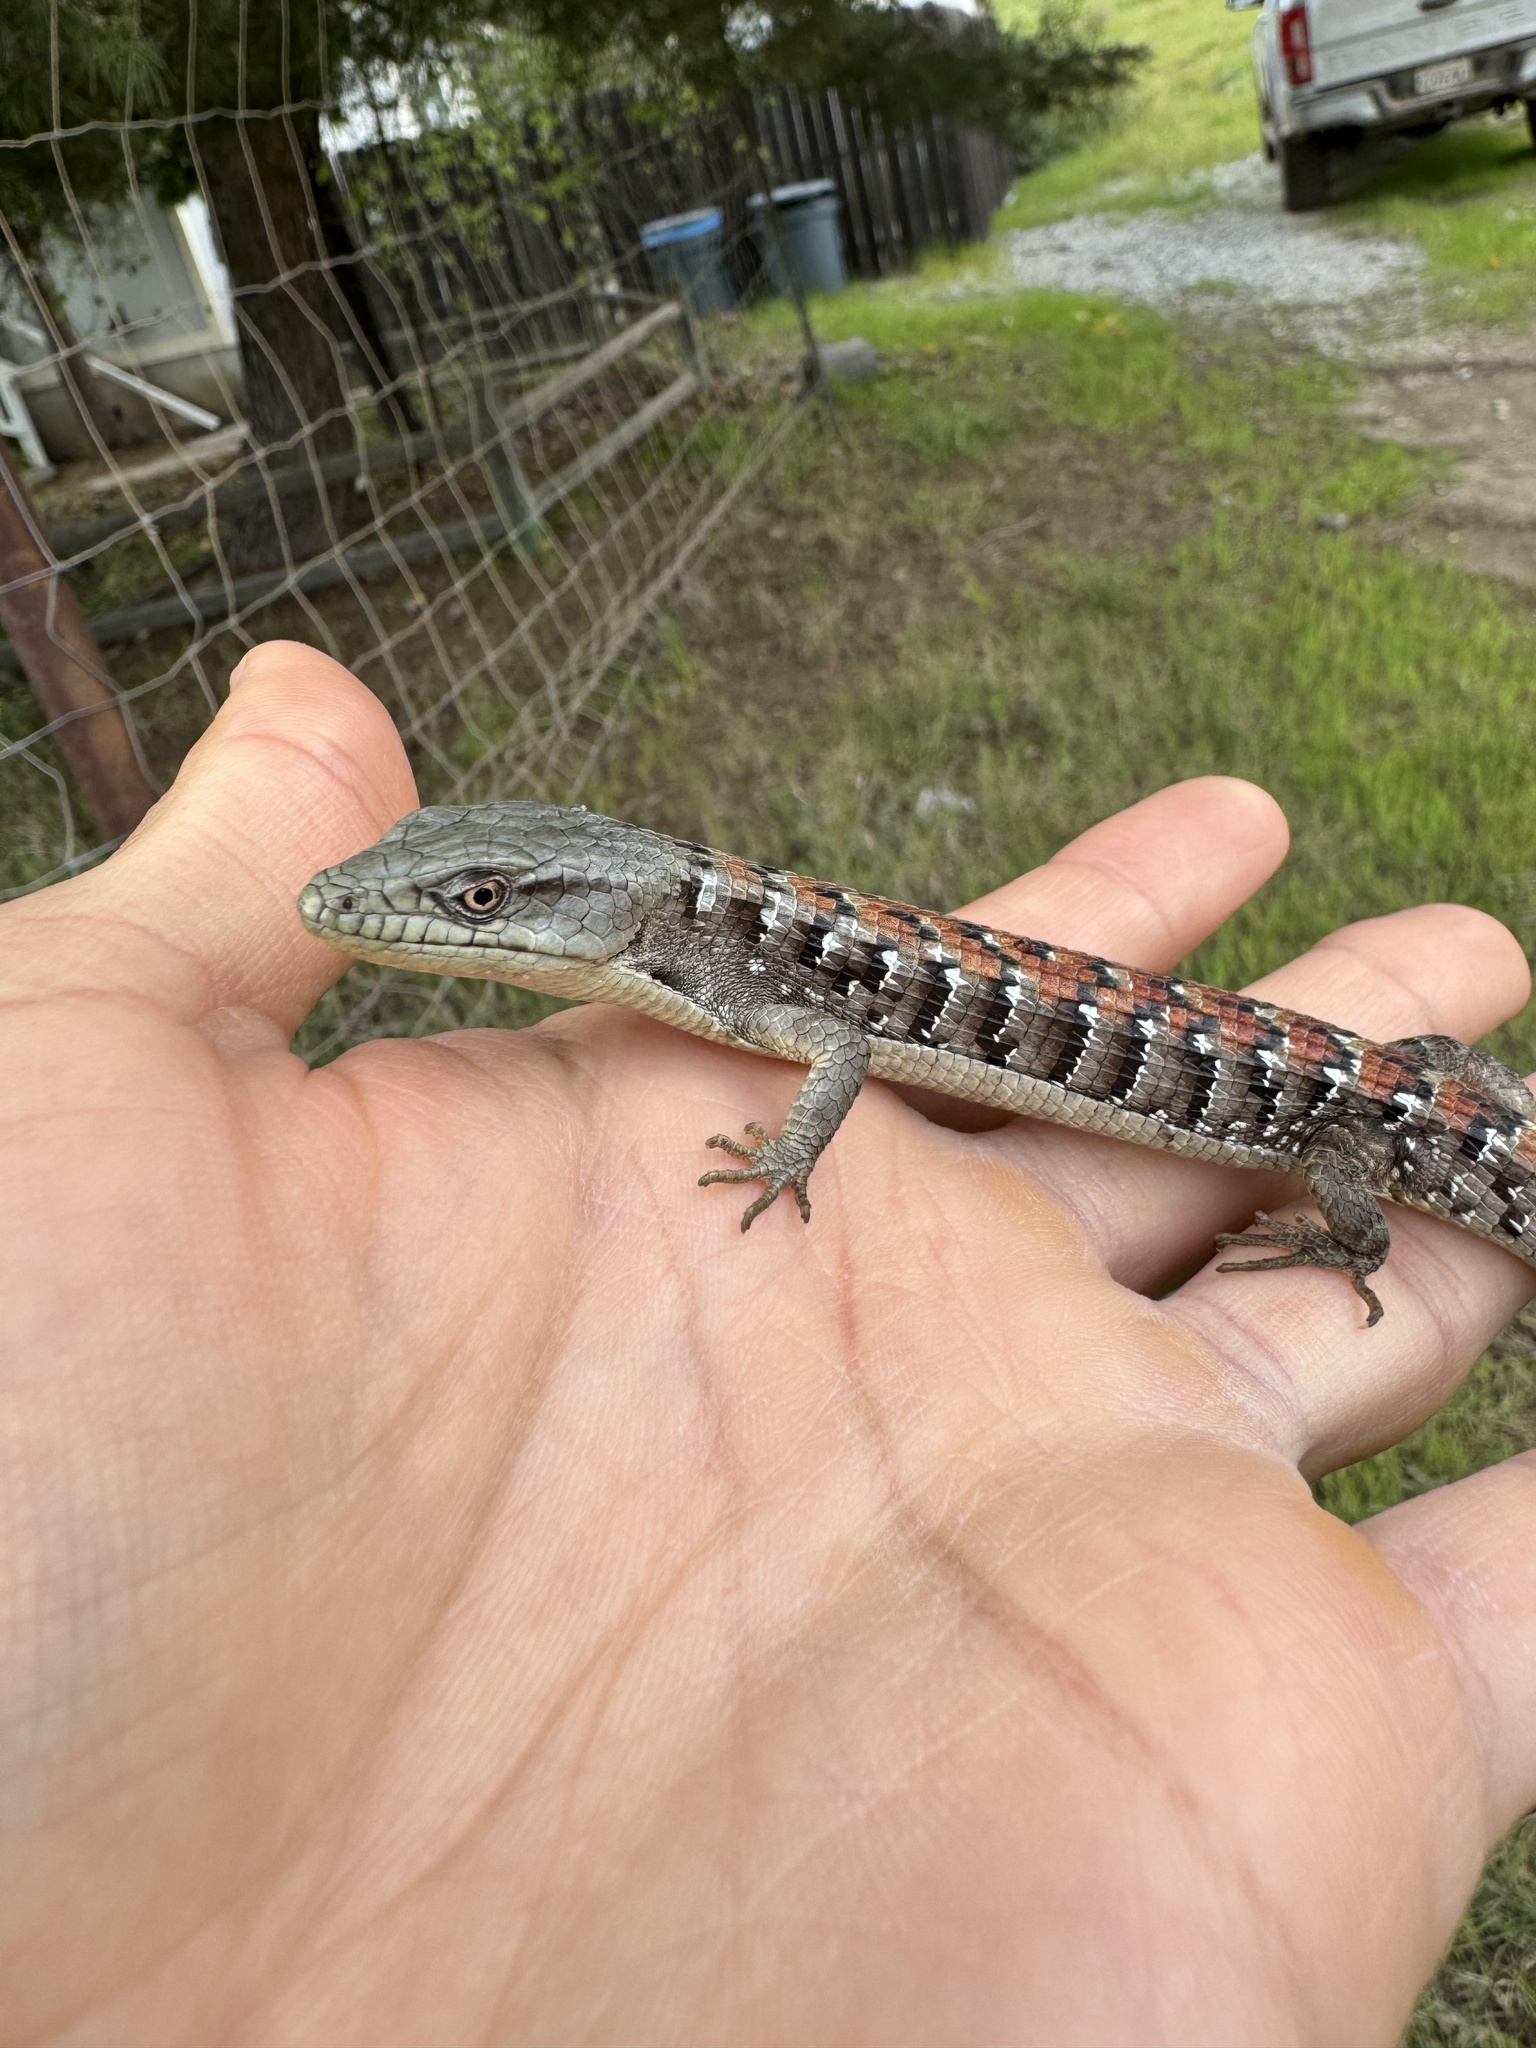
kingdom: Animalia
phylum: Chordata
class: Squamata
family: Anguidae
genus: Elgaria
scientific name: Elgaria multicarinata
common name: Southern alligator lizard
